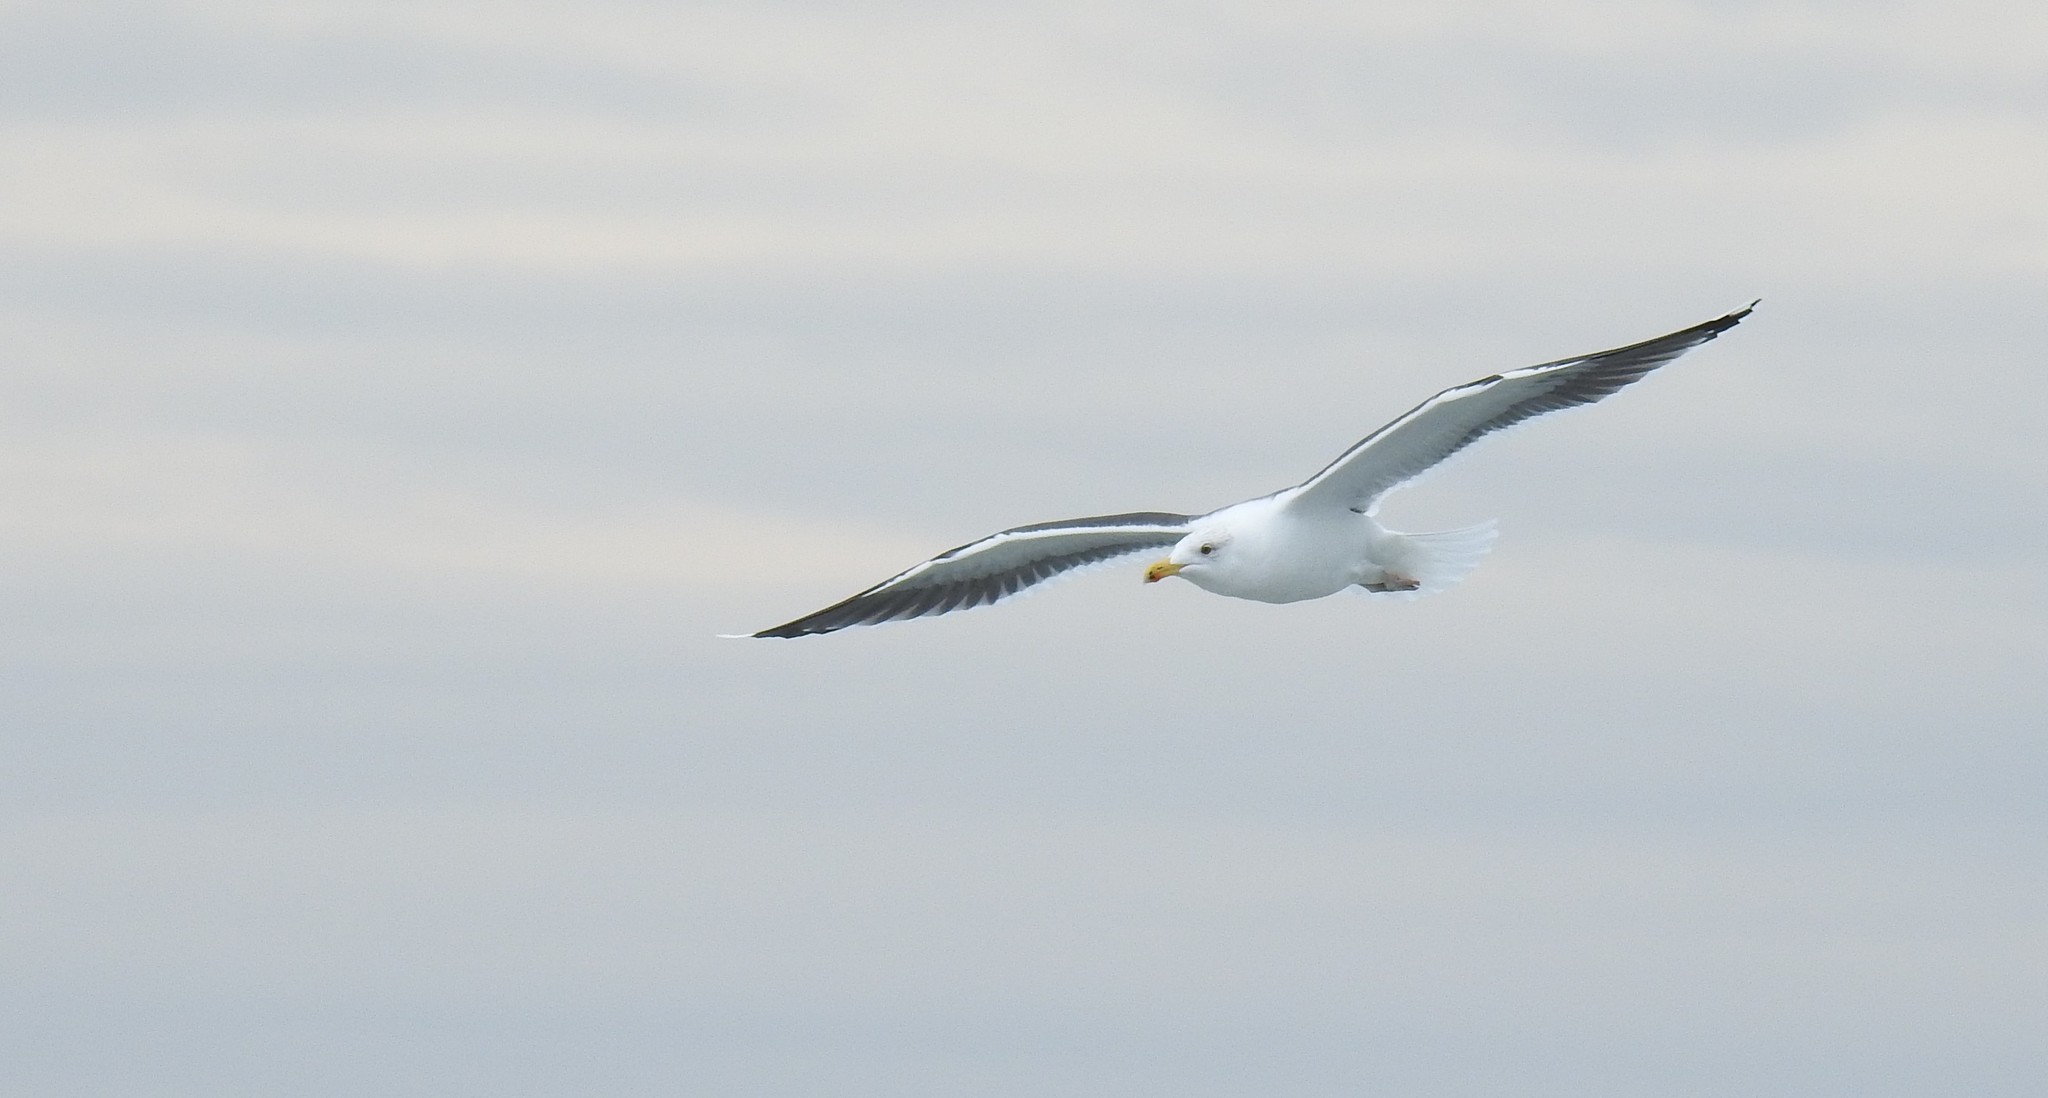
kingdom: Animalia
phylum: Chordata
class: Aves
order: Charadriiformes
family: Laridae
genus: Larus
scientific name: Larus marinus
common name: Great black-backed gull
